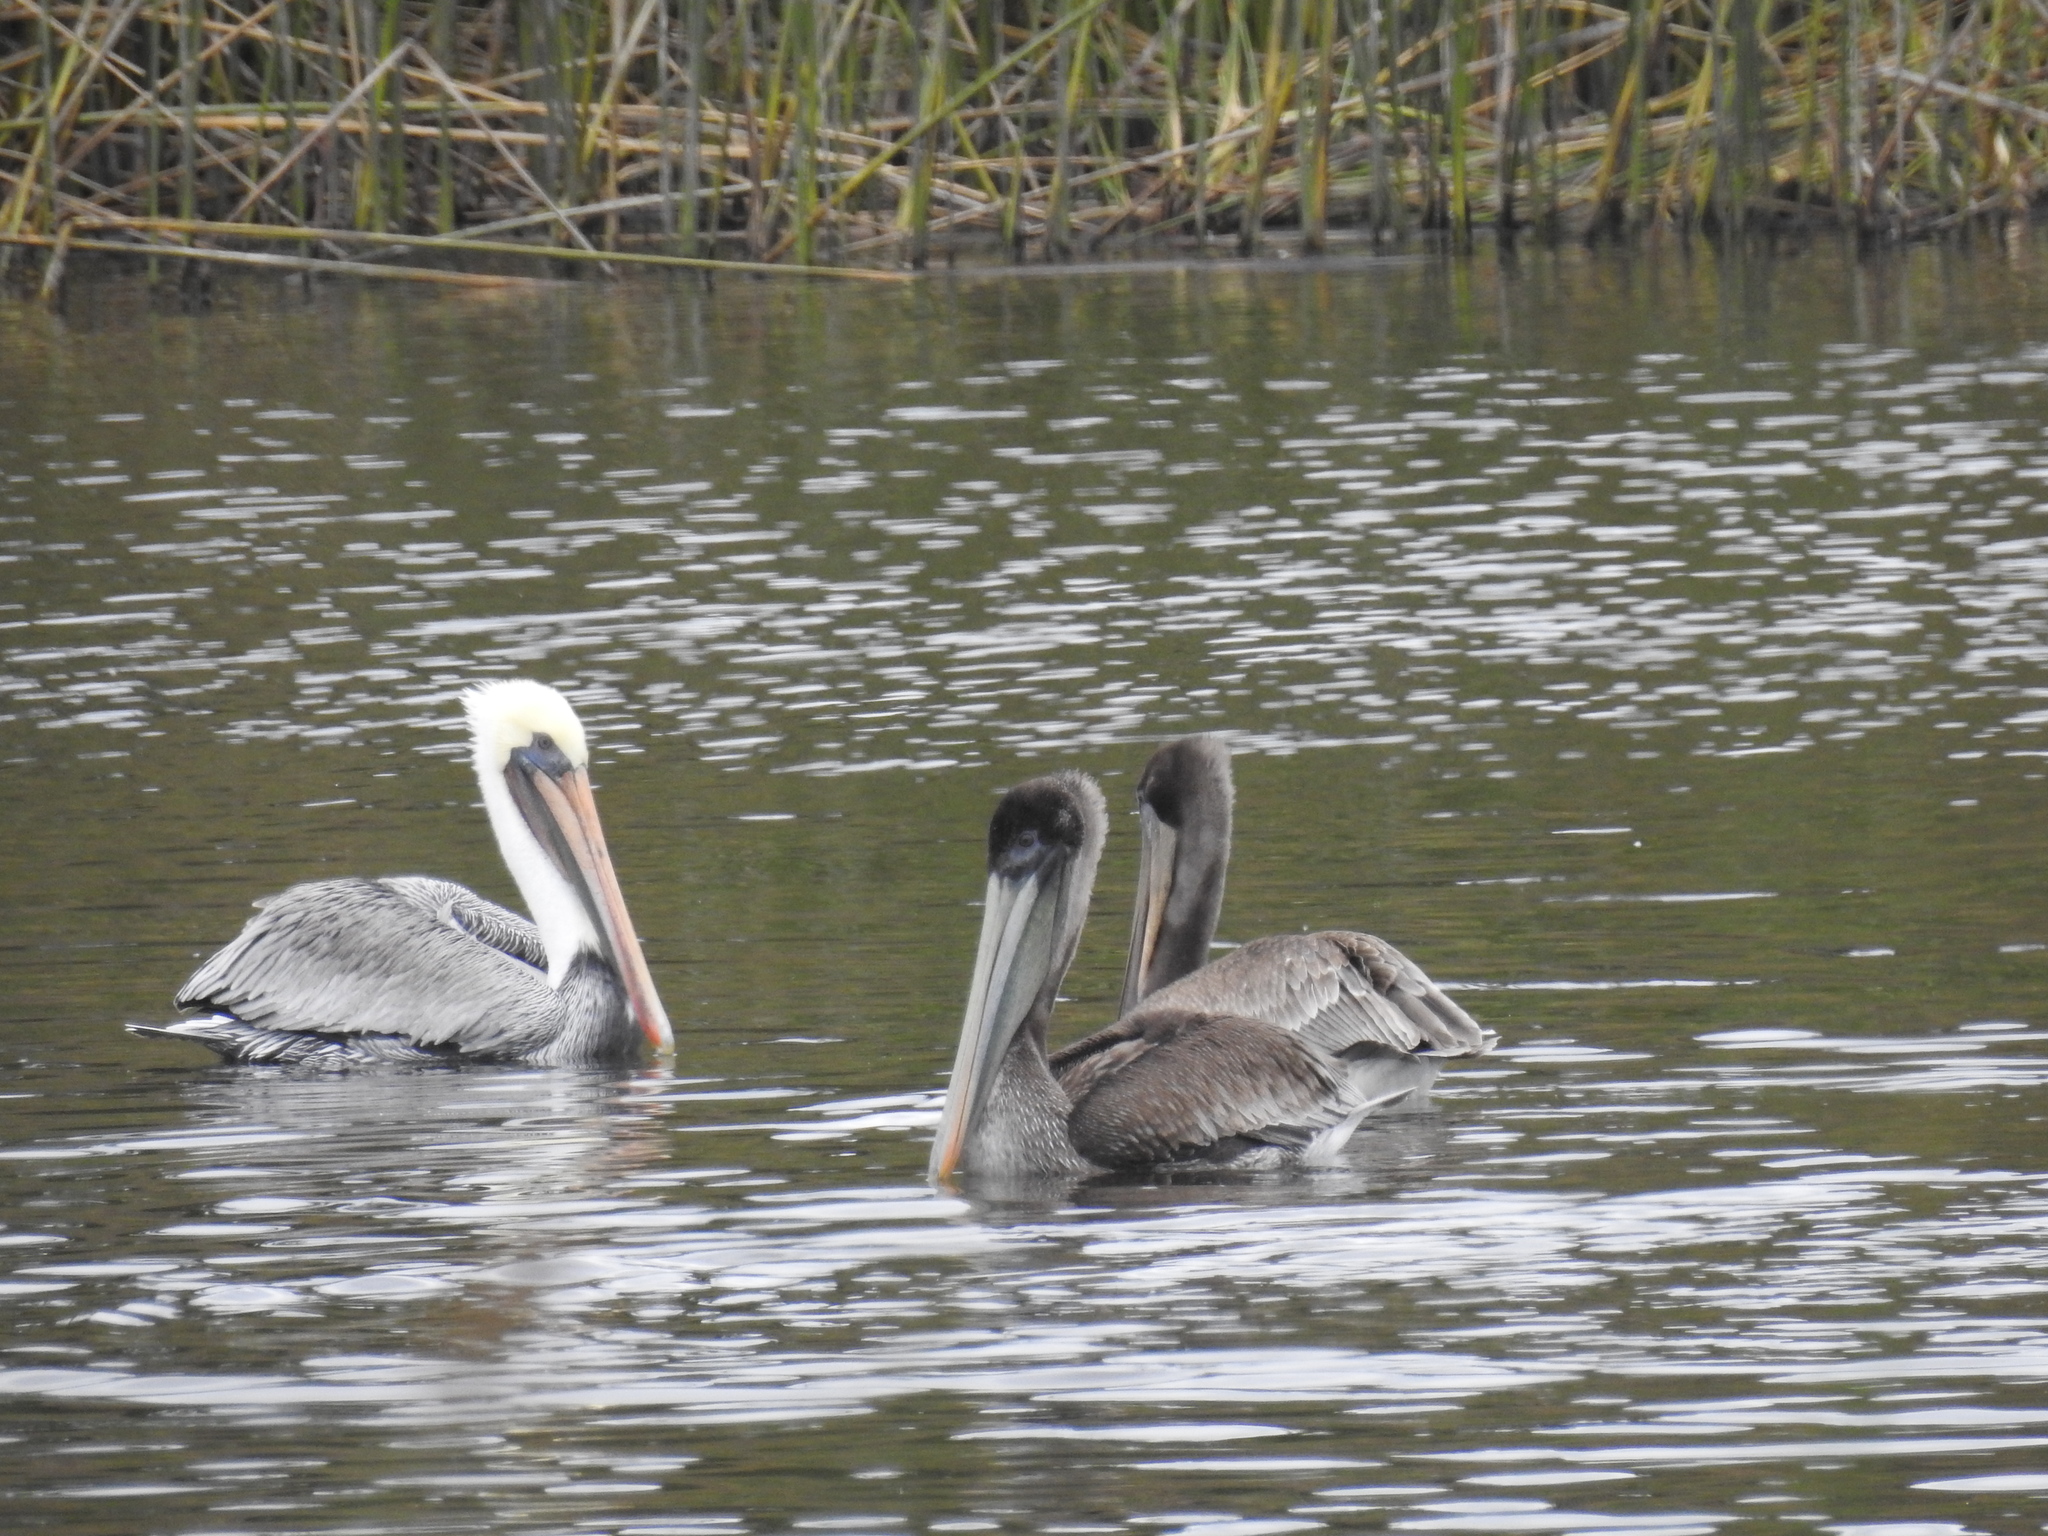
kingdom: Animalia
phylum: Chordata
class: Aves
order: Pelecaniformes
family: Pelecanidae
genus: Pelecanus
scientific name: Pelecanus occidentalis
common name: Brown pelican
